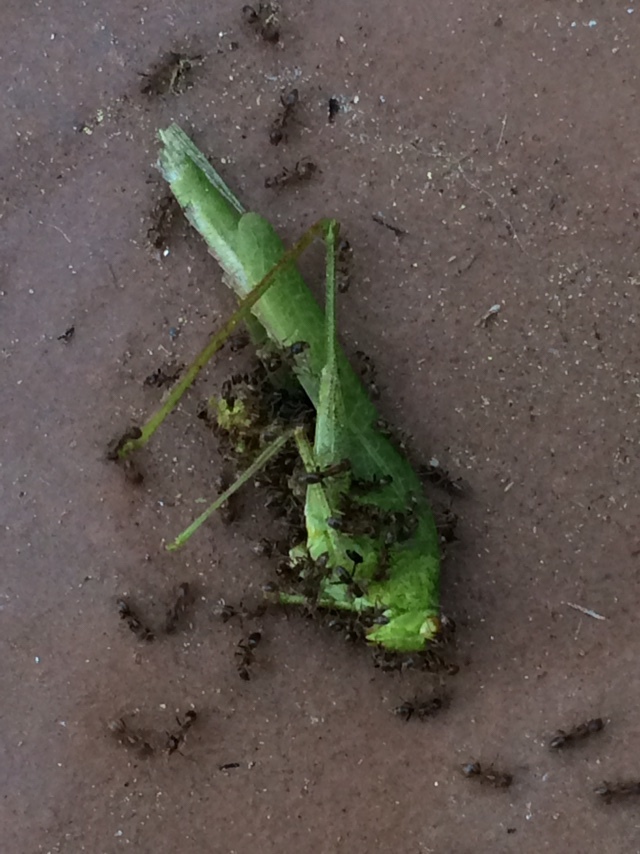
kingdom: Animalia
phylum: Arthropoda
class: Insecta
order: Orthoptera
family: Tettigoniidae
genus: Phaneroptera
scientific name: Phaneroptera nana
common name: Southern sickle bush-cricket
